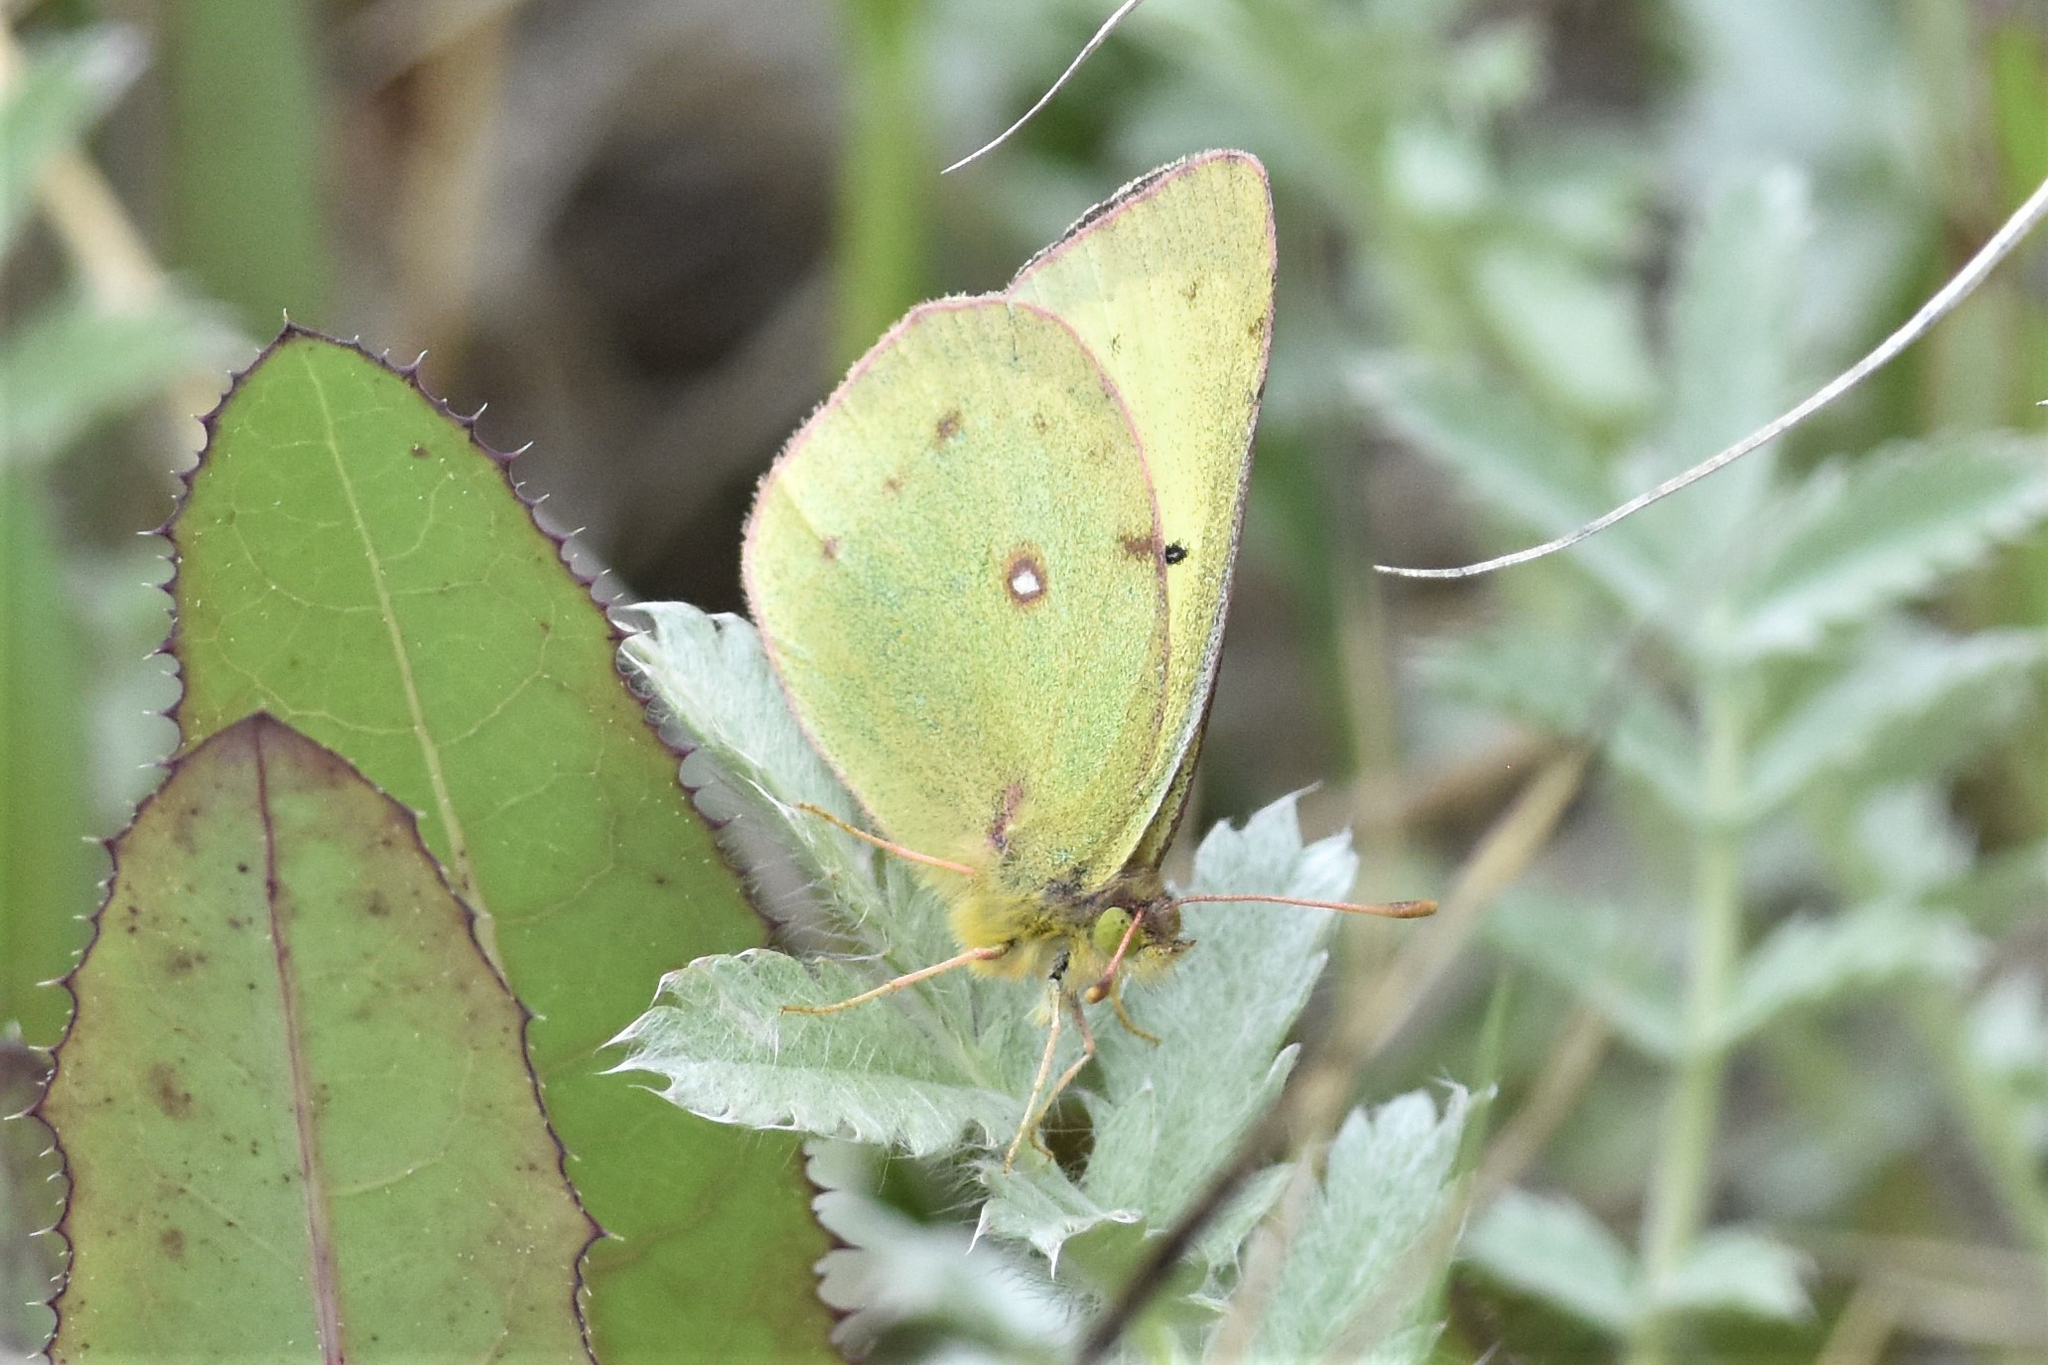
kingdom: Animalia
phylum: Arthropoda
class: Insecta
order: Lepidoptera
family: Pieridae
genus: Colias
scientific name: Colias philodice
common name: Clouded sulphur
